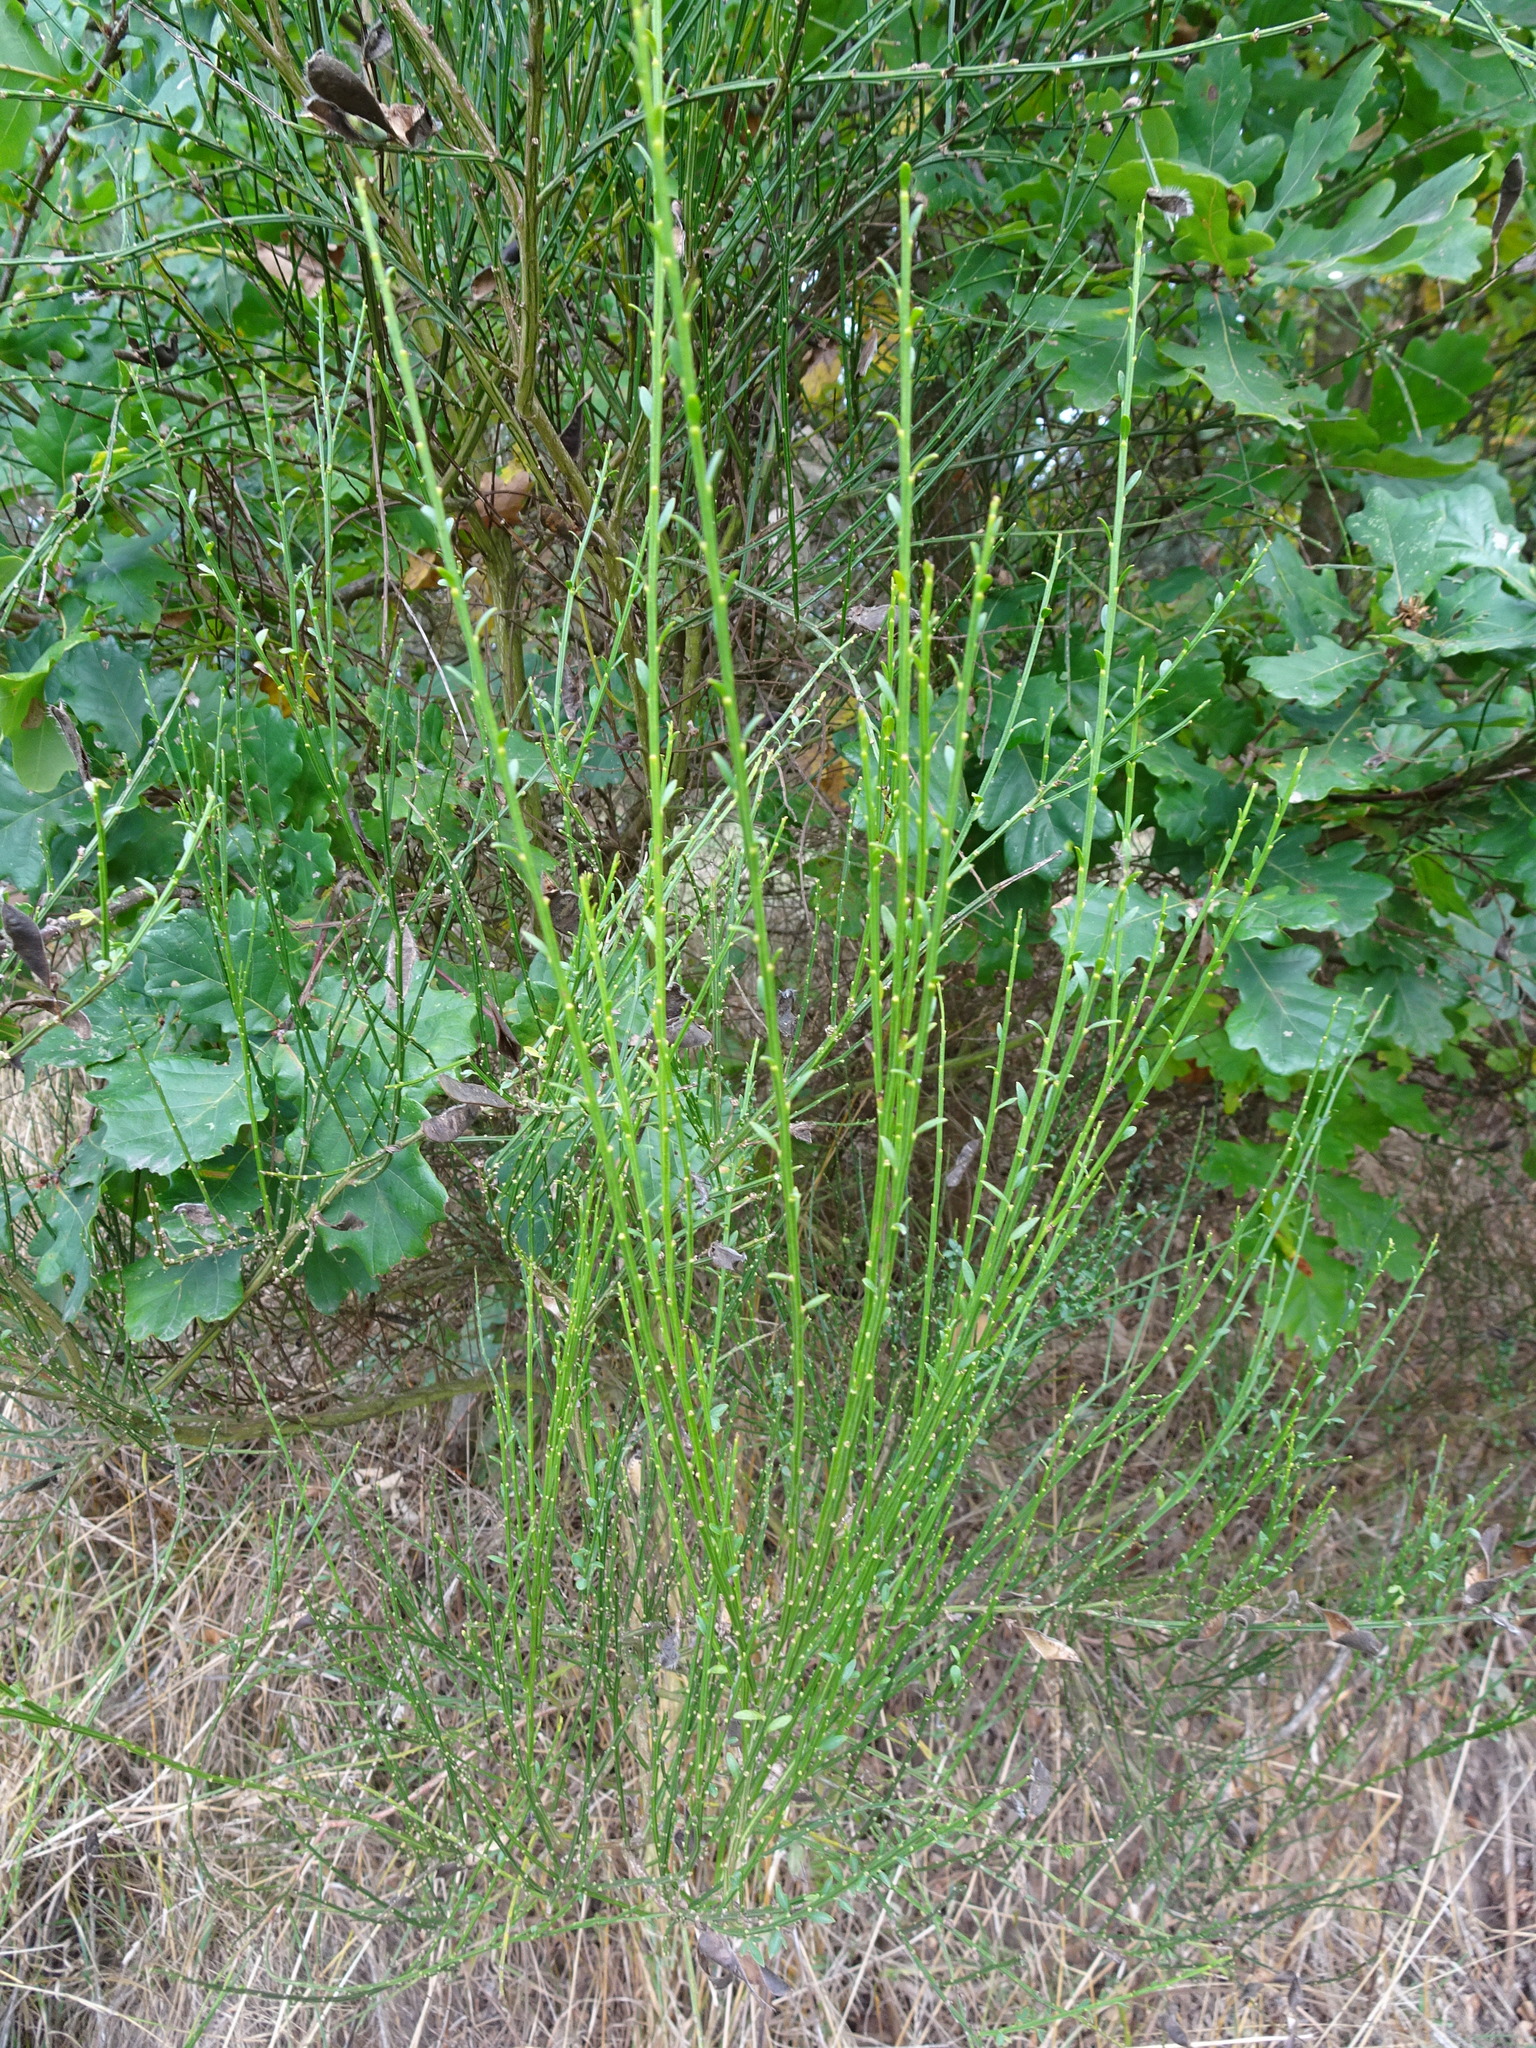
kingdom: Plantae
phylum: Tracheophyta
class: Magnoliopsida
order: Fabales
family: Fabaceae
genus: Cytisus
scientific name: Cytisus scoparius
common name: Scotch broom
